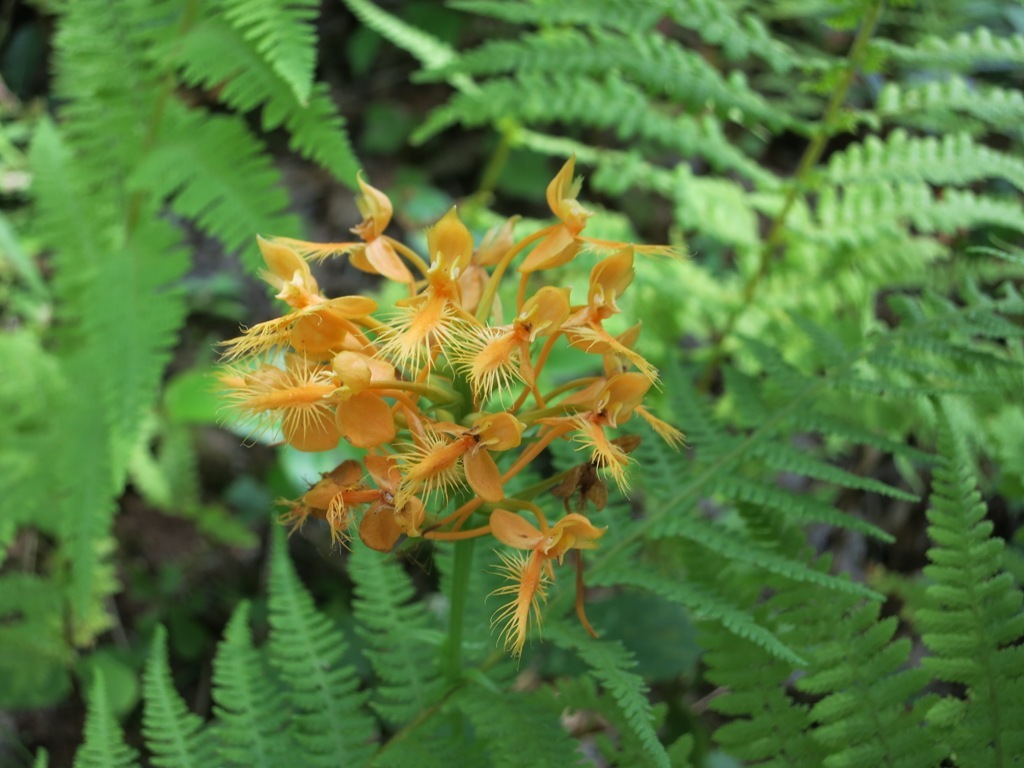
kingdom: Plantae
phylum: Tracheophyta
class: Liliopsida
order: Asparagales
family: Orchidaceae
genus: Platanthera
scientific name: Platanthera ciliaris
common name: Yellow fringed orchid
